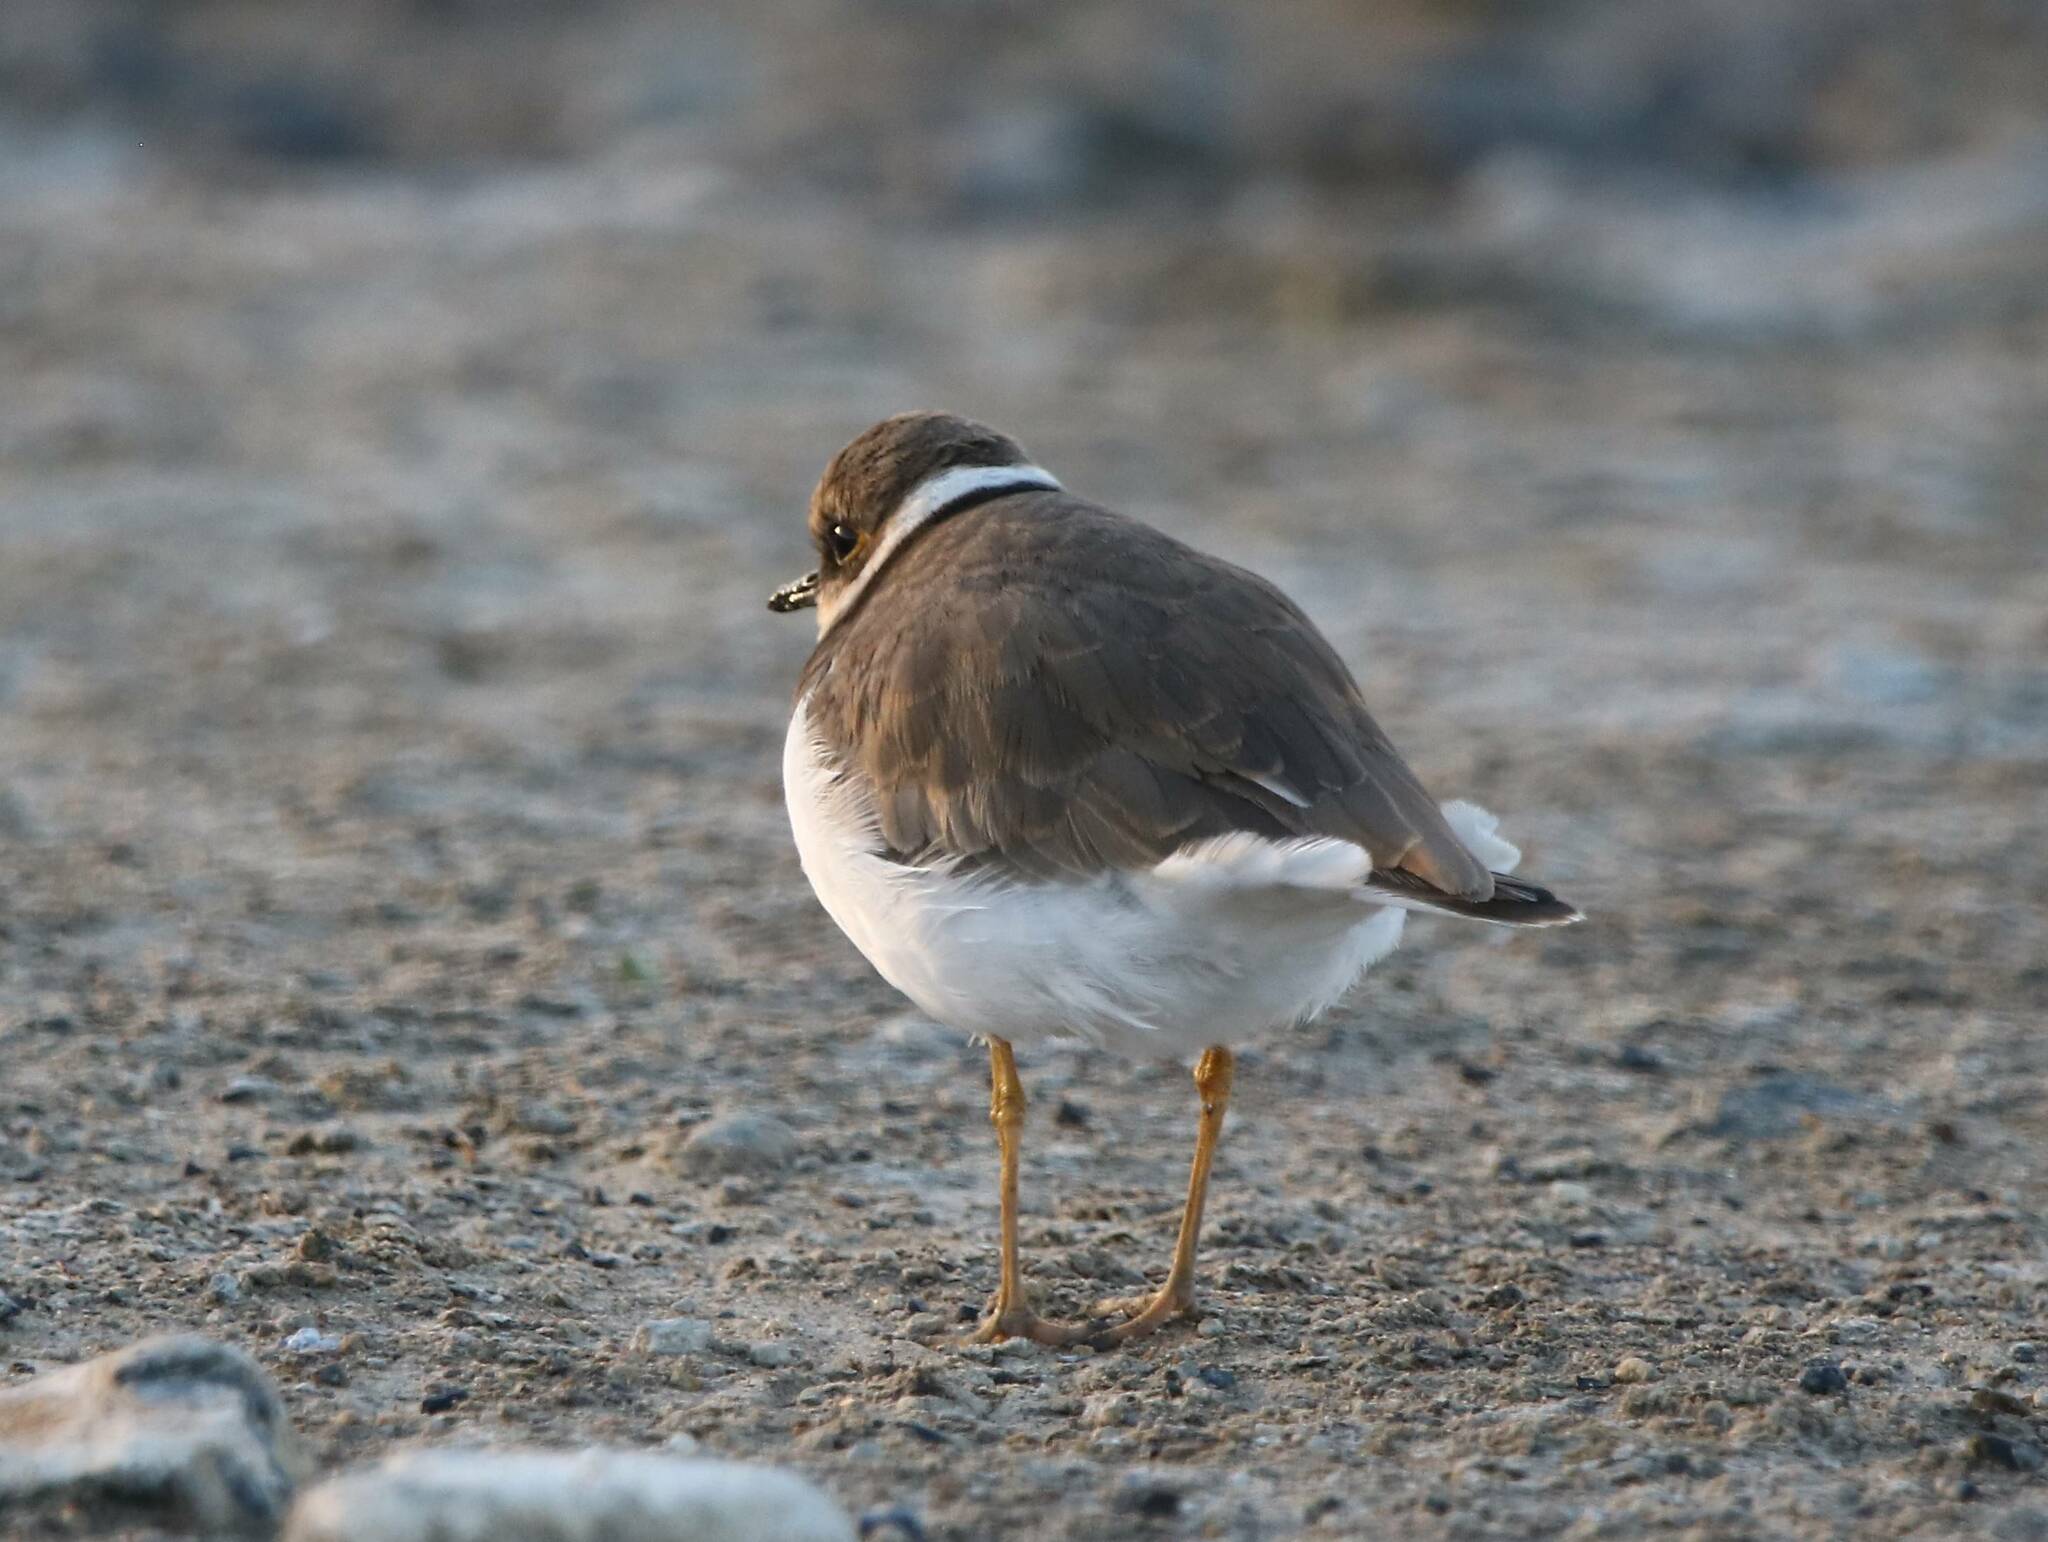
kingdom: Animalia
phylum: Chordata
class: Aves
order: Charadriiformes
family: Charadriidae
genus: Charadrius
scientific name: Charadrius dubius
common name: Little ringed plover
